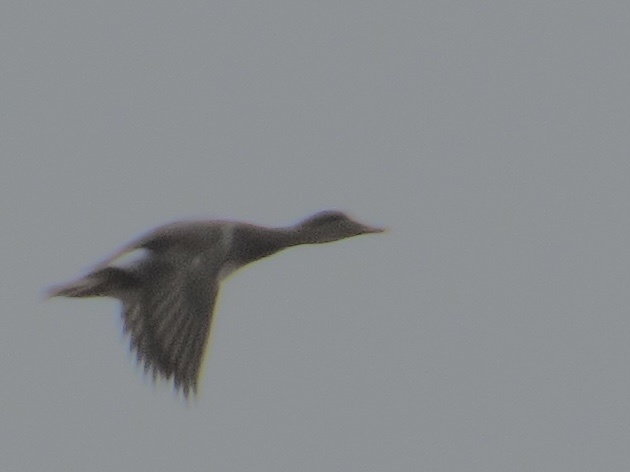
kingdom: Animalia
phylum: Chordata
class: Aves
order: Anseriformes
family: Anatidae
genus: Mareca
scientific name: Mareca strepera
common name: Gadwall
